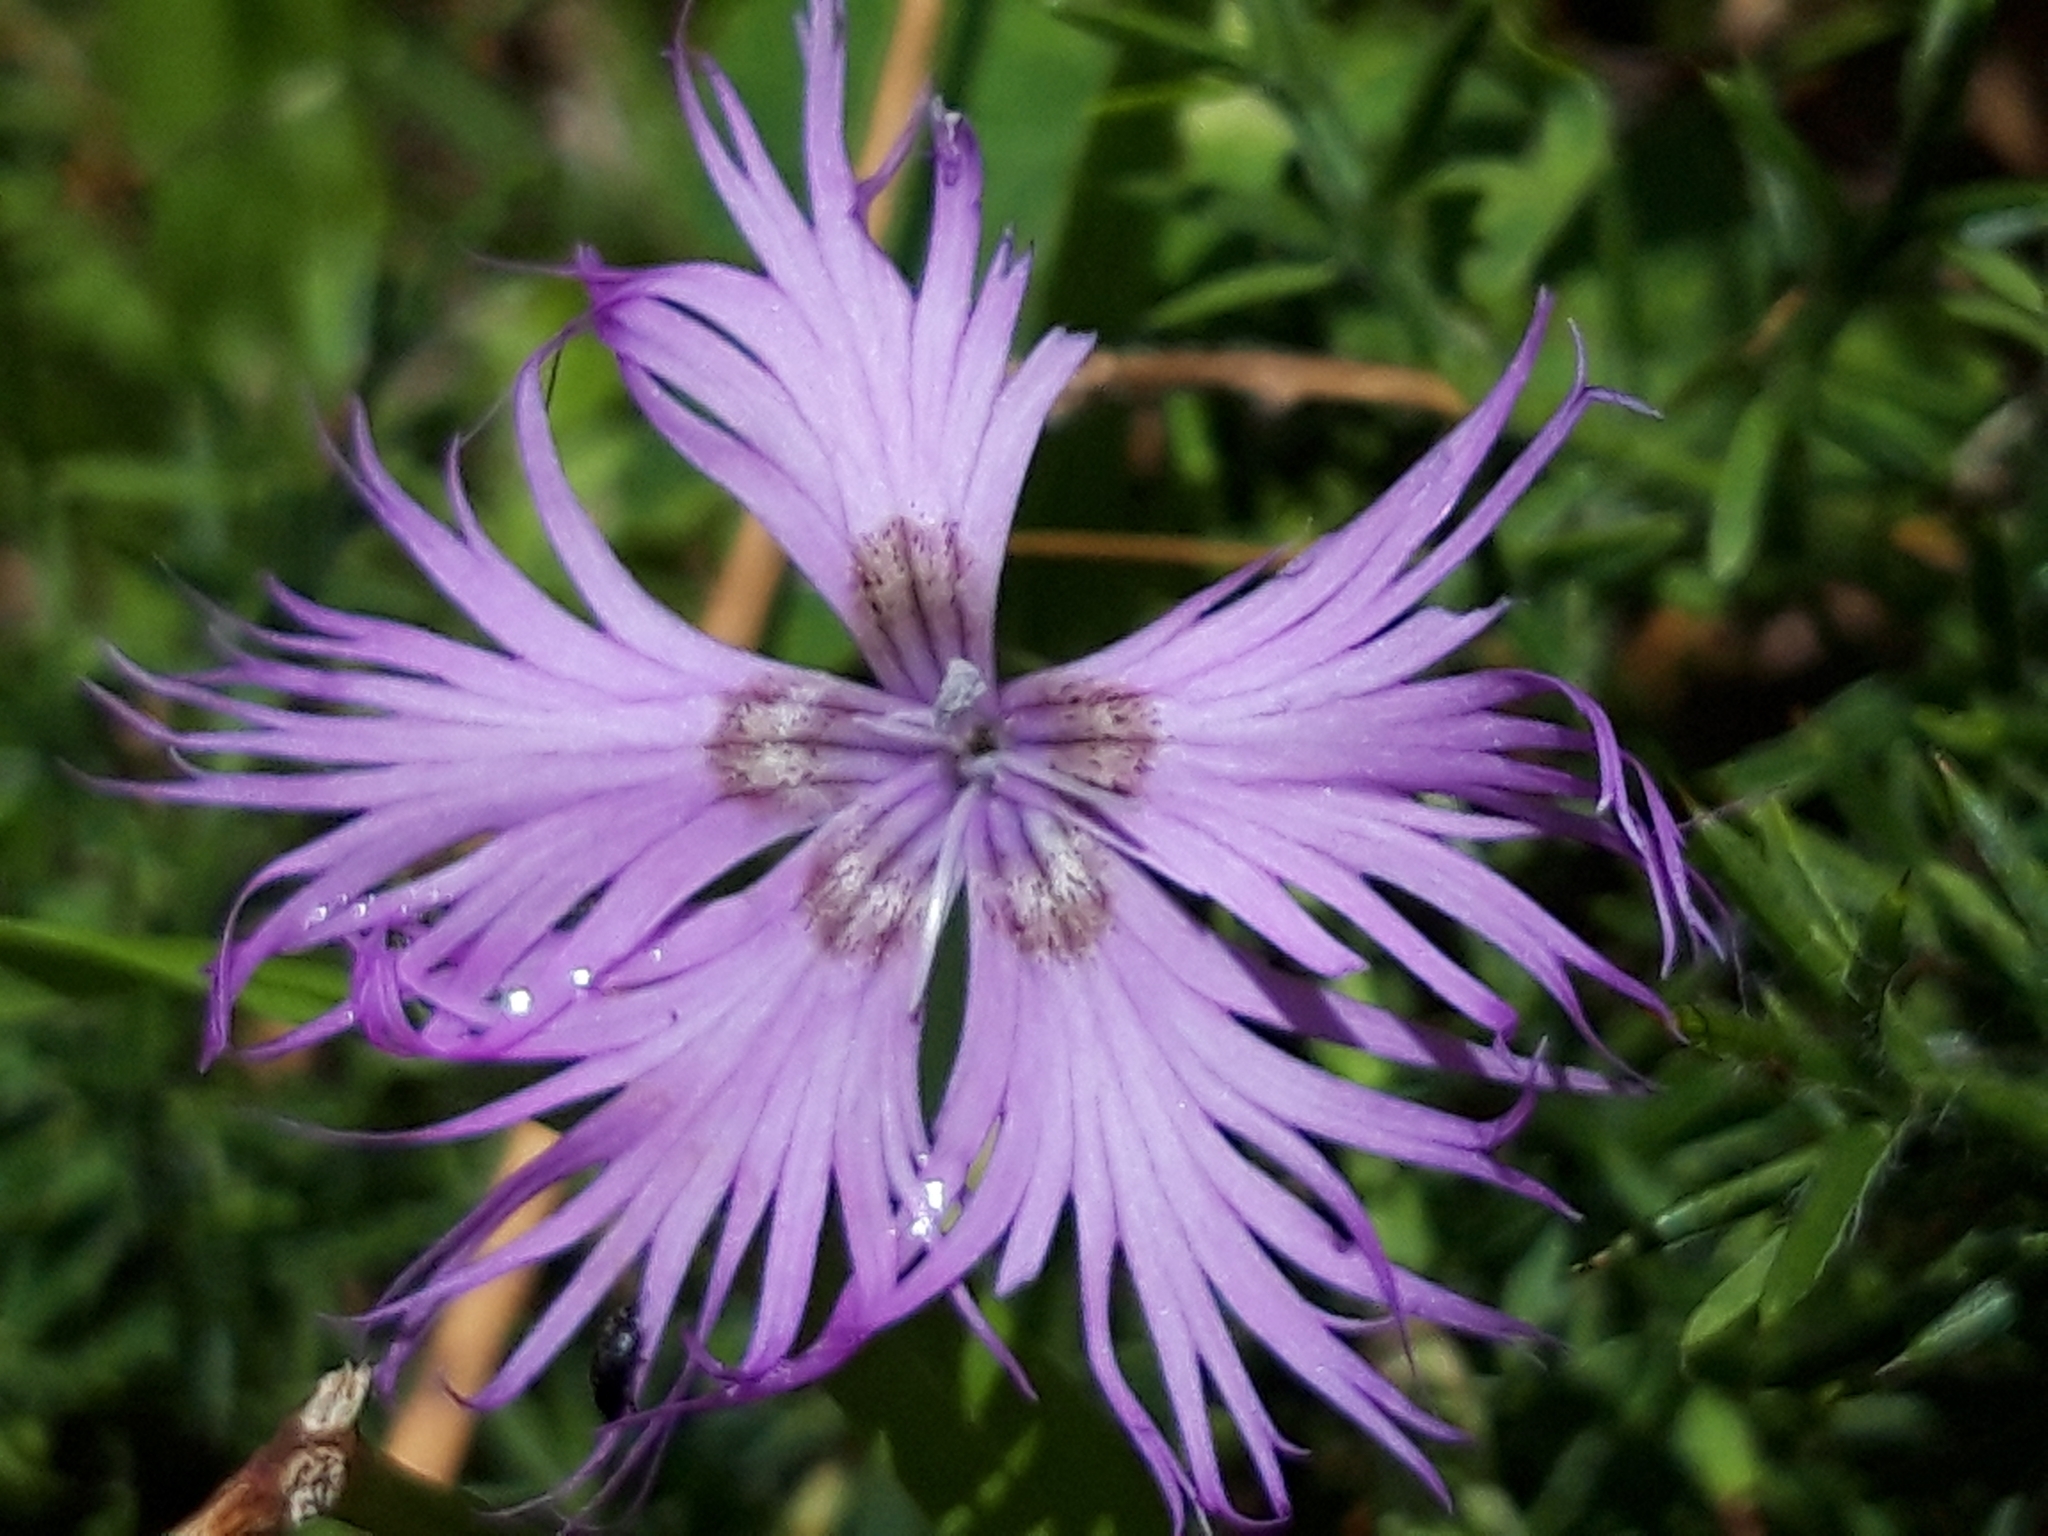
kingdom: Plantae
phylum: Tracheophyta
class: Magnoliopsida
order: Caryophyllales
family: Caryophyllaceae
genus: Dianthus
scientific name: Dianthus hyssopifolius
